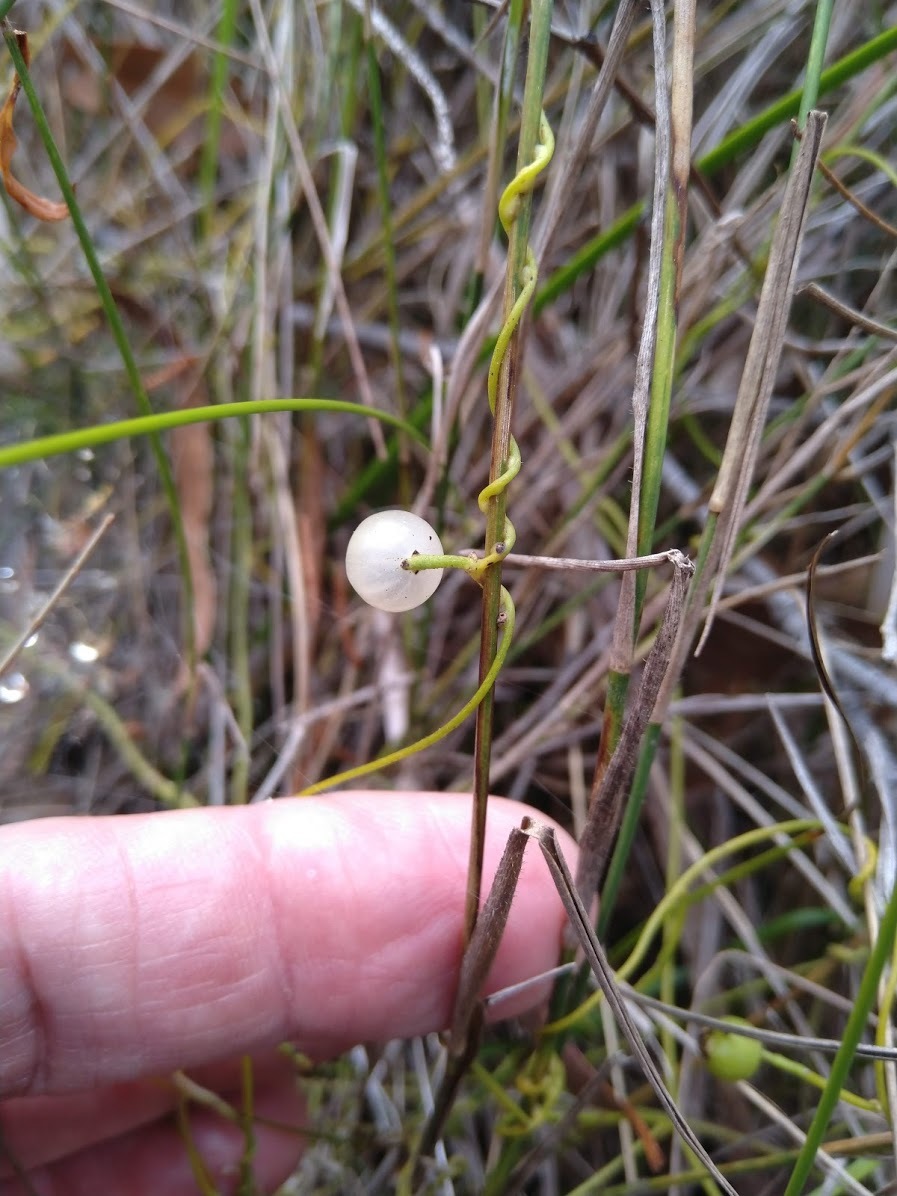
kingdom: Plantae
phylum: Tracheophyta
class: Magnoliopsida
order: Laurales
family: Lauraceae
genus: Cassytha
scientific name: Cassytha filiformis
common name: Dodder-laurel
